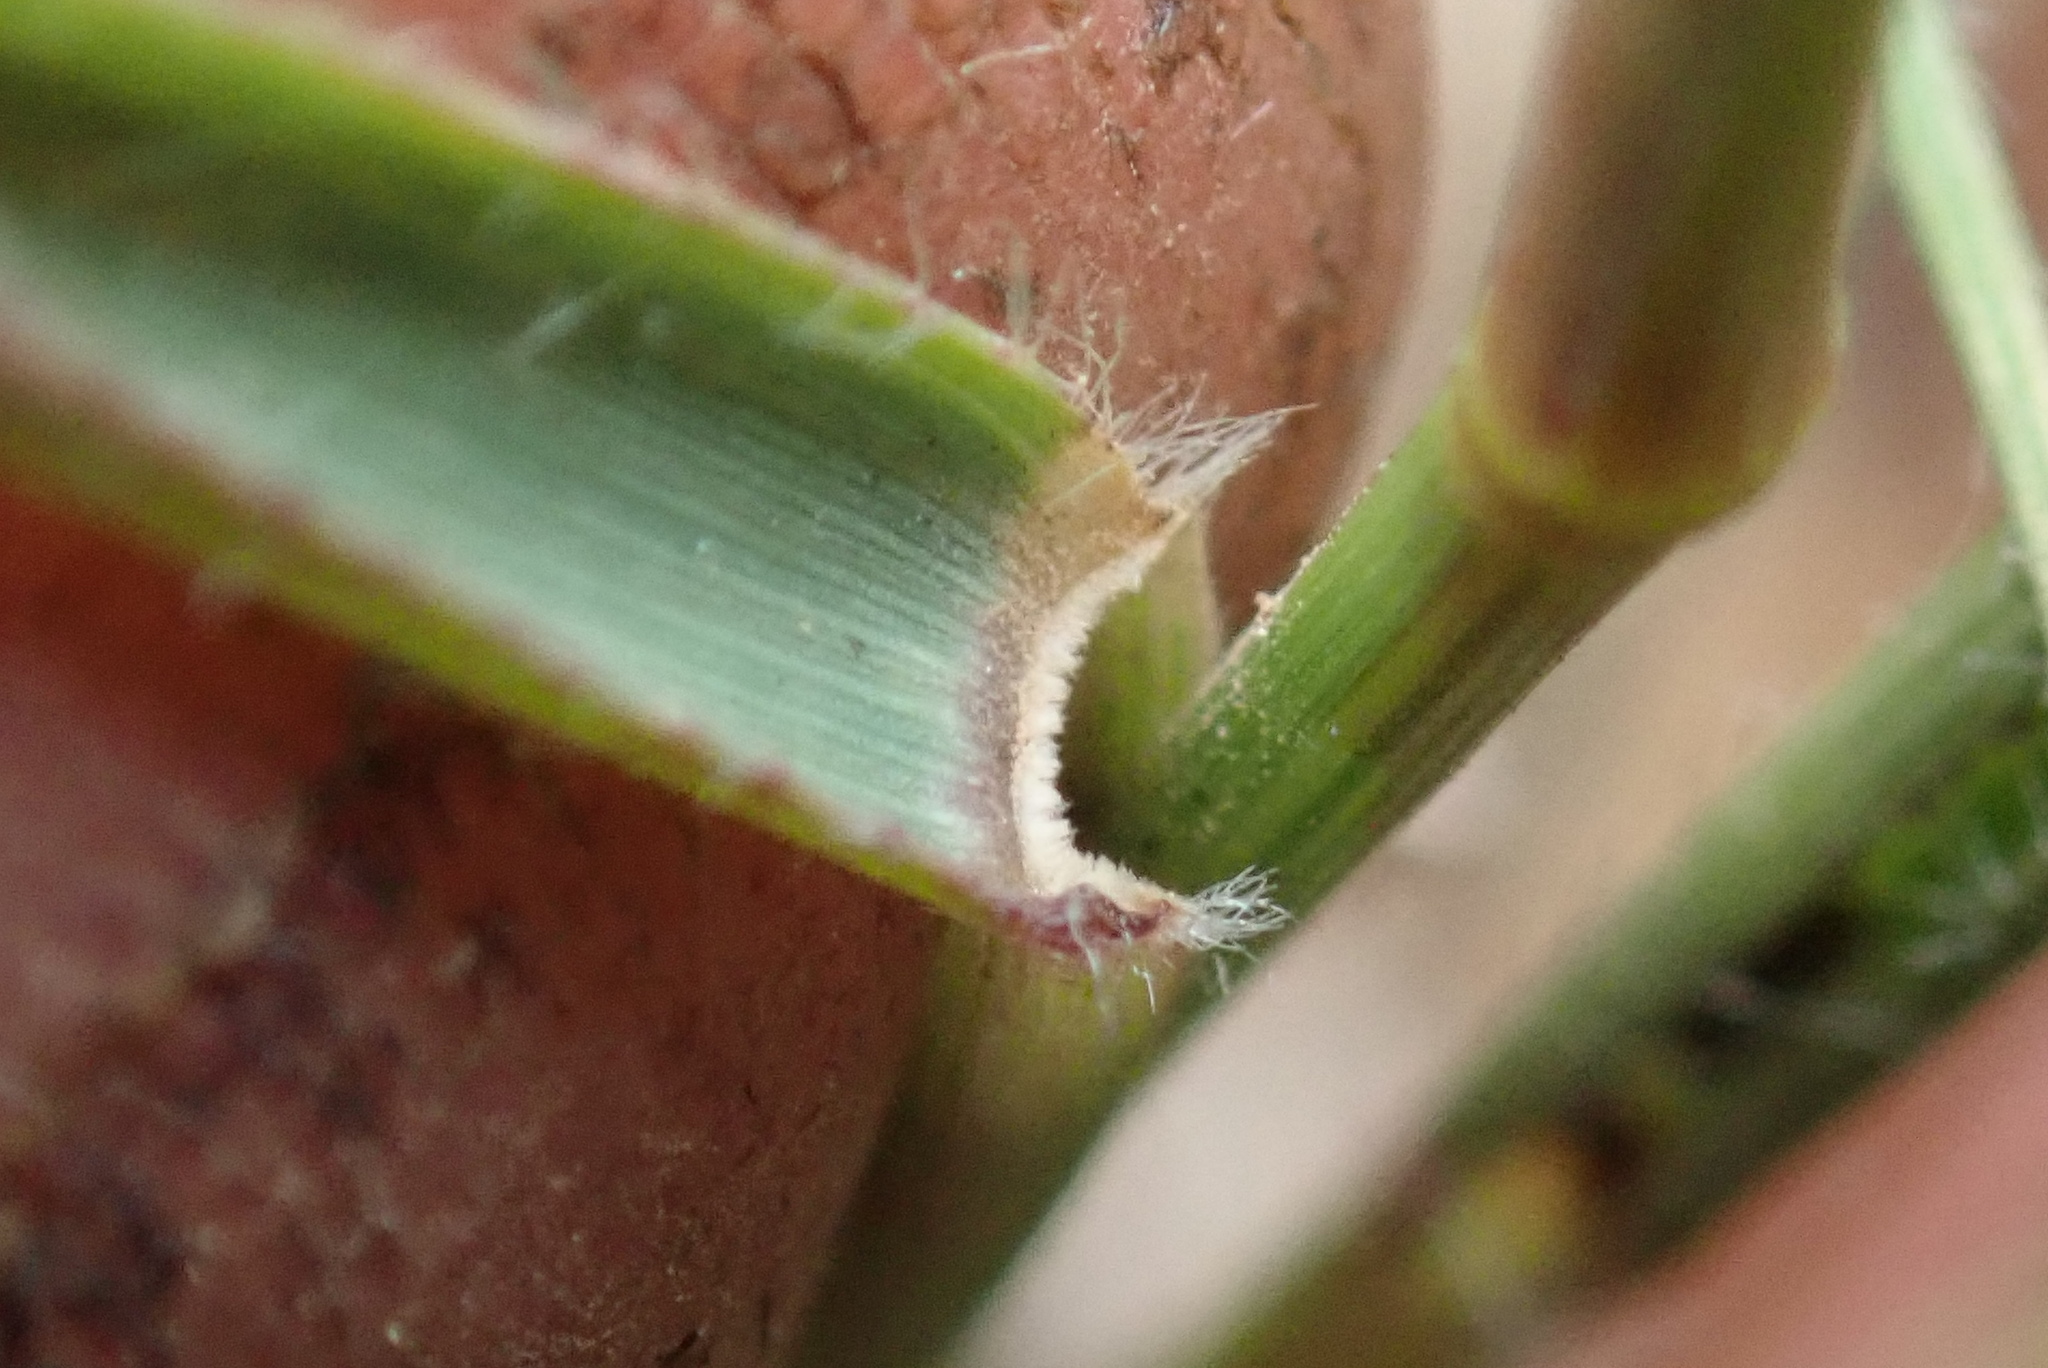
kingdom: Plantae
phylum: Tracheophyta
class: Liliopsida
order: Poales
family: Poaceae
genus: Eragrostis
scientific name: Eragrostis patentipilosa
